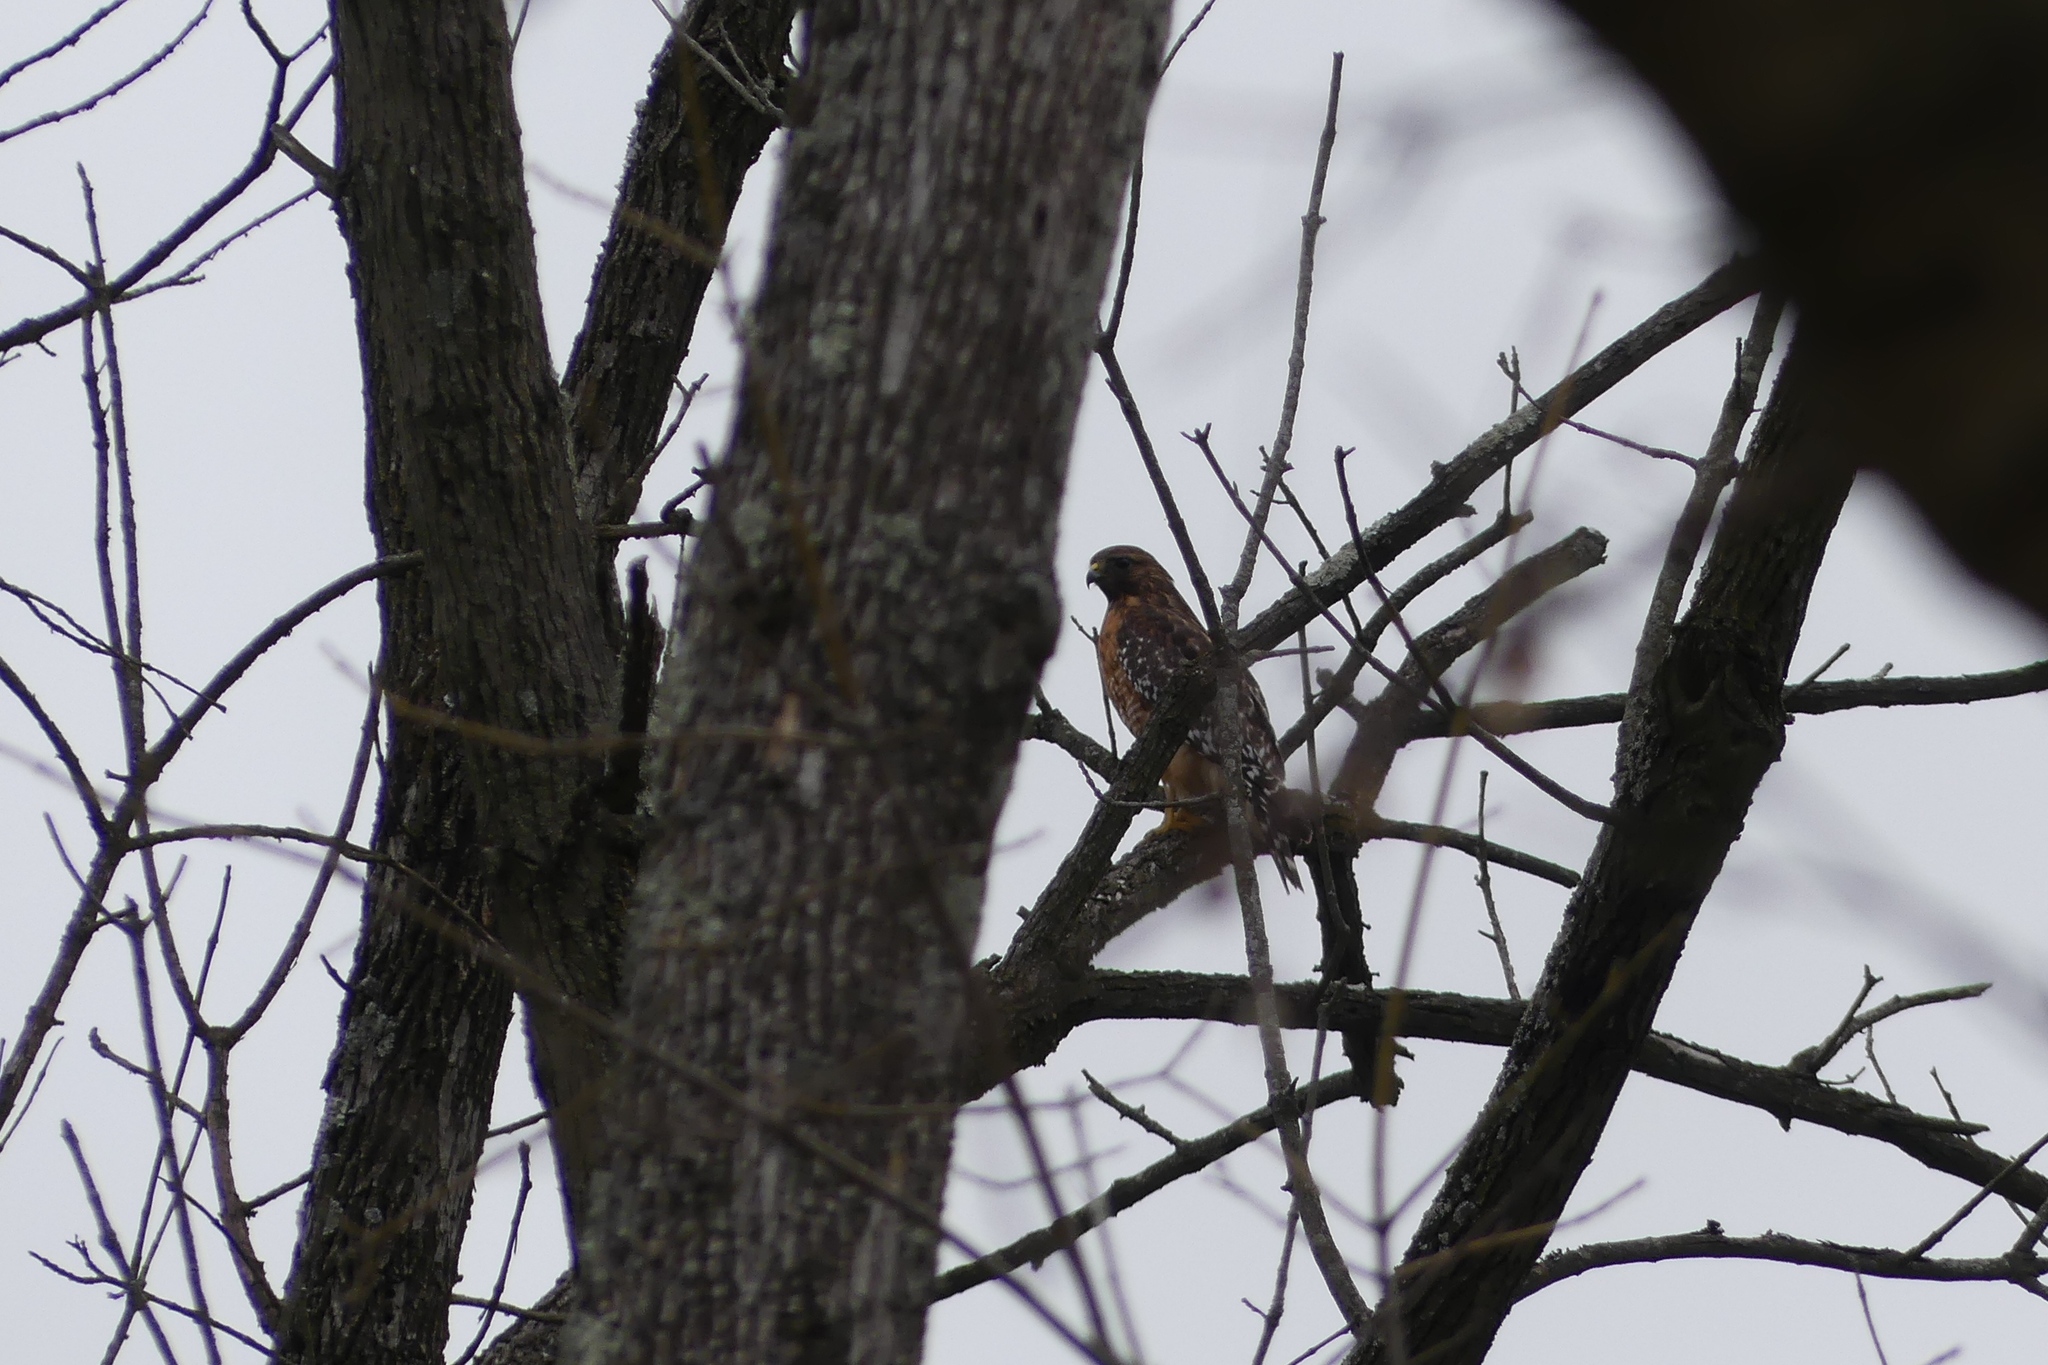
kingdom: Animalia
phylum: Chordata
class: Aves
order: Accipitriformes
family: Accipitridae
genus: Buteo
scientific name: Buteo lineatus
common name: Red-shouldered hawk
